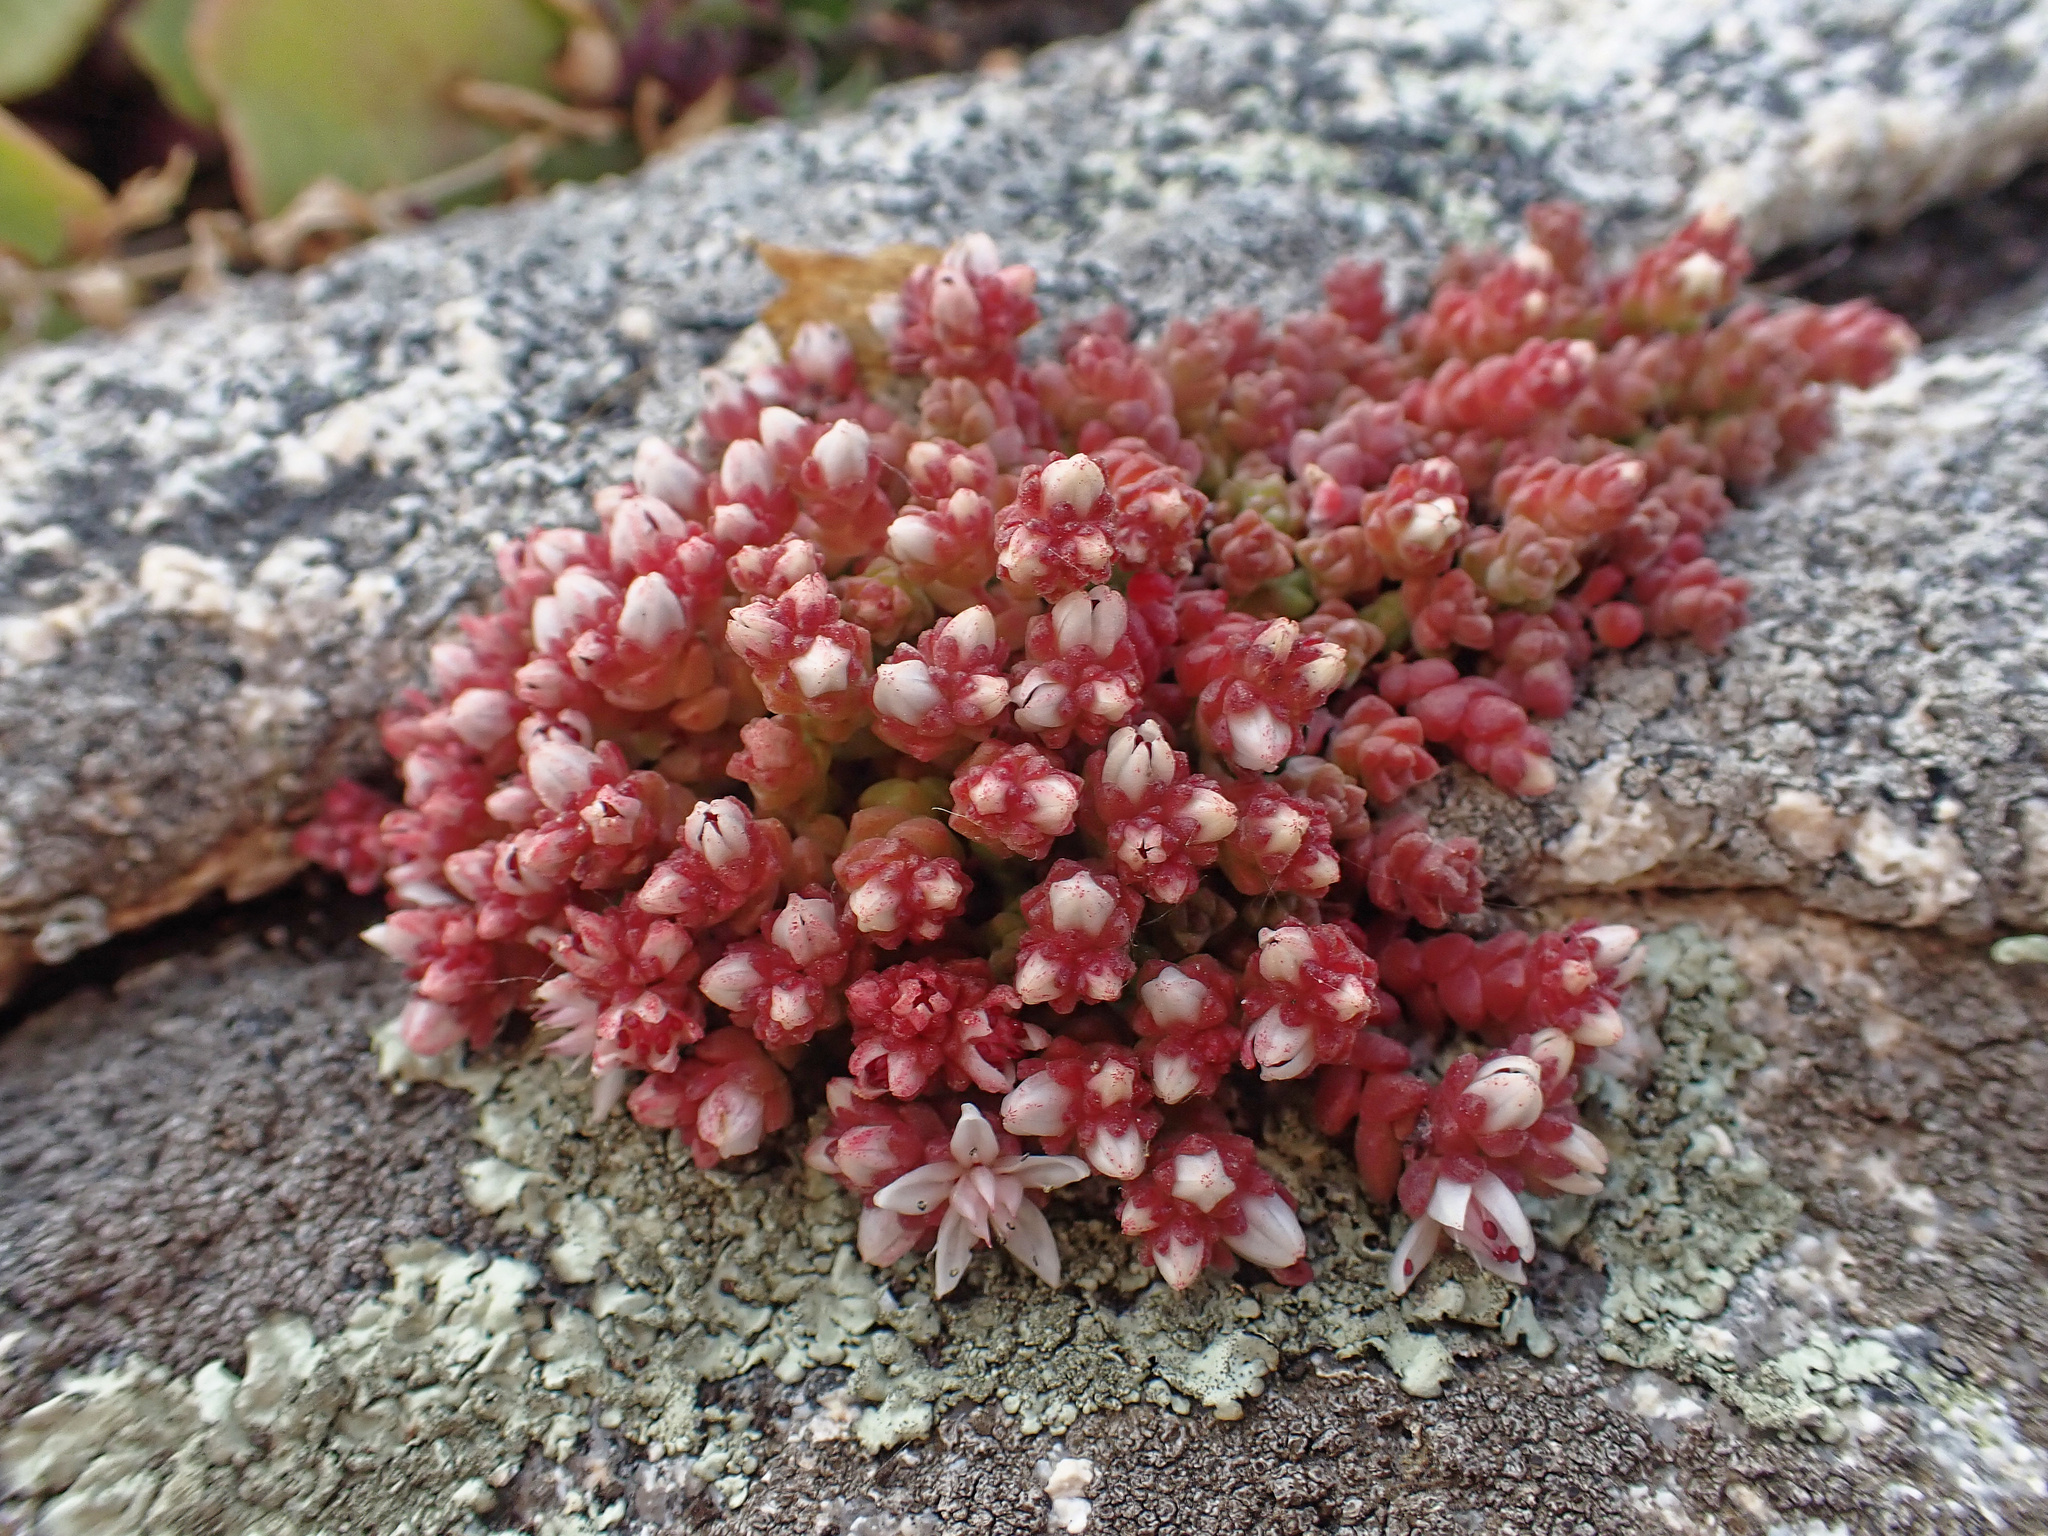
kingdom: Plantae
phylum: Tracheophyta
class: Magnoliopsida
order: Saxifragales
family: Crassulaceae
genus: Sedum
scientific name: Sedum anglicum
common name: English stonecrop
